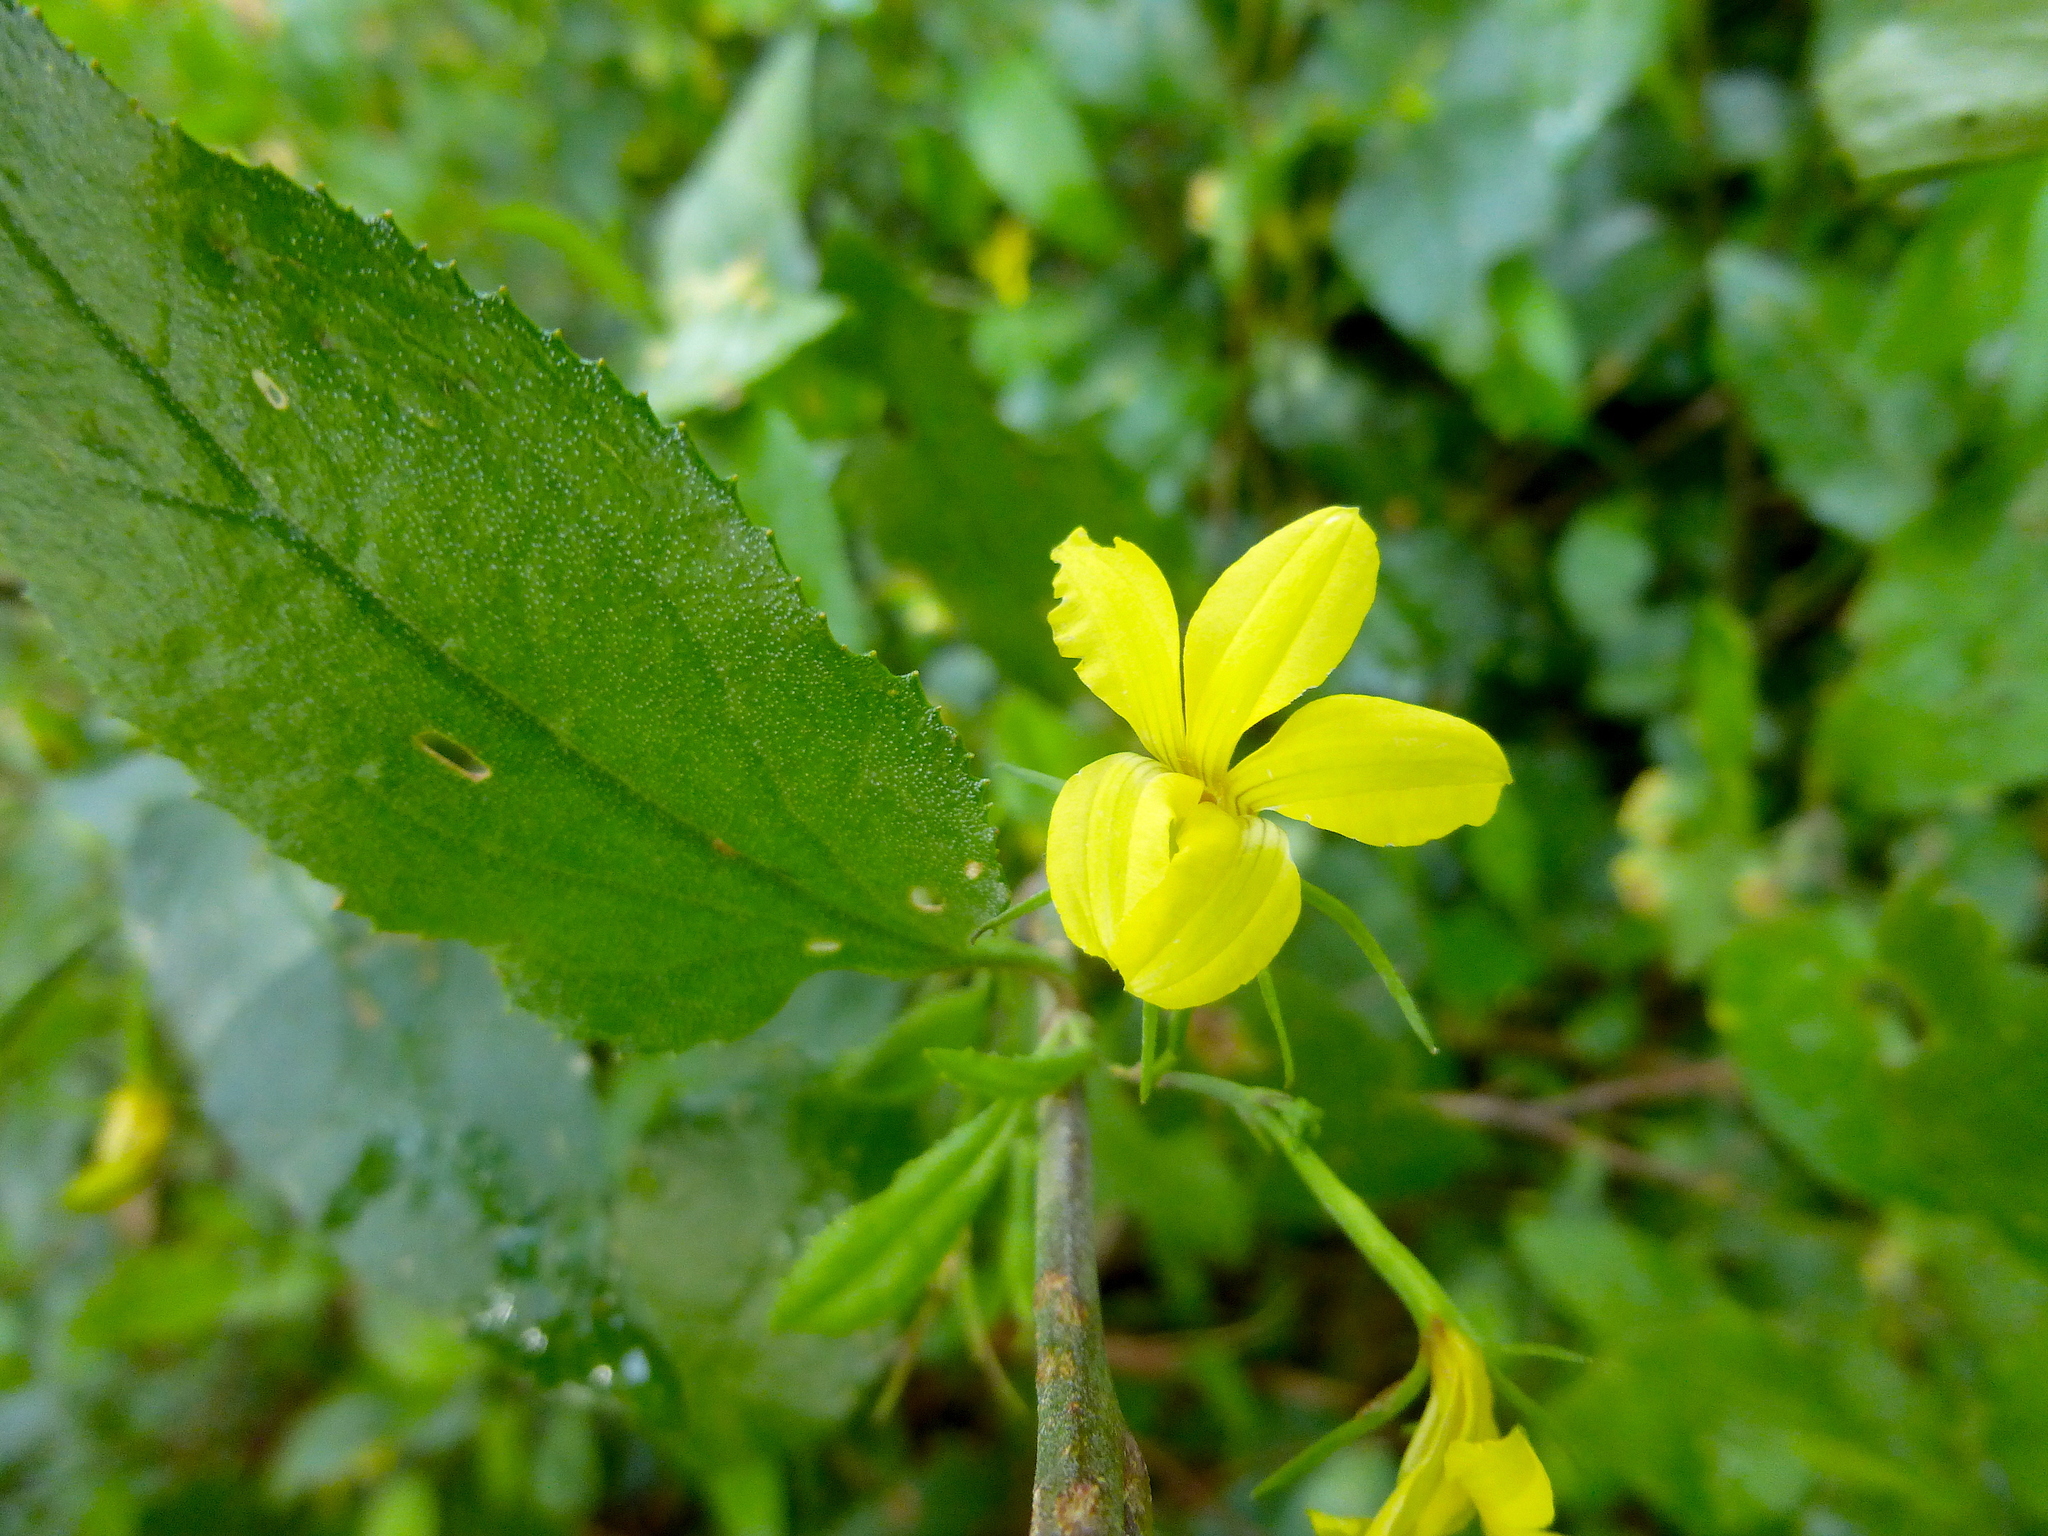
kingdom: Plantae
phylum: Tracheophyta
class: Magnoliopsida
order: Asterales
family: Goodeniaceae
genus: Goodenia
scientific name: Goodenia ovata
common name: Hop goodenia
